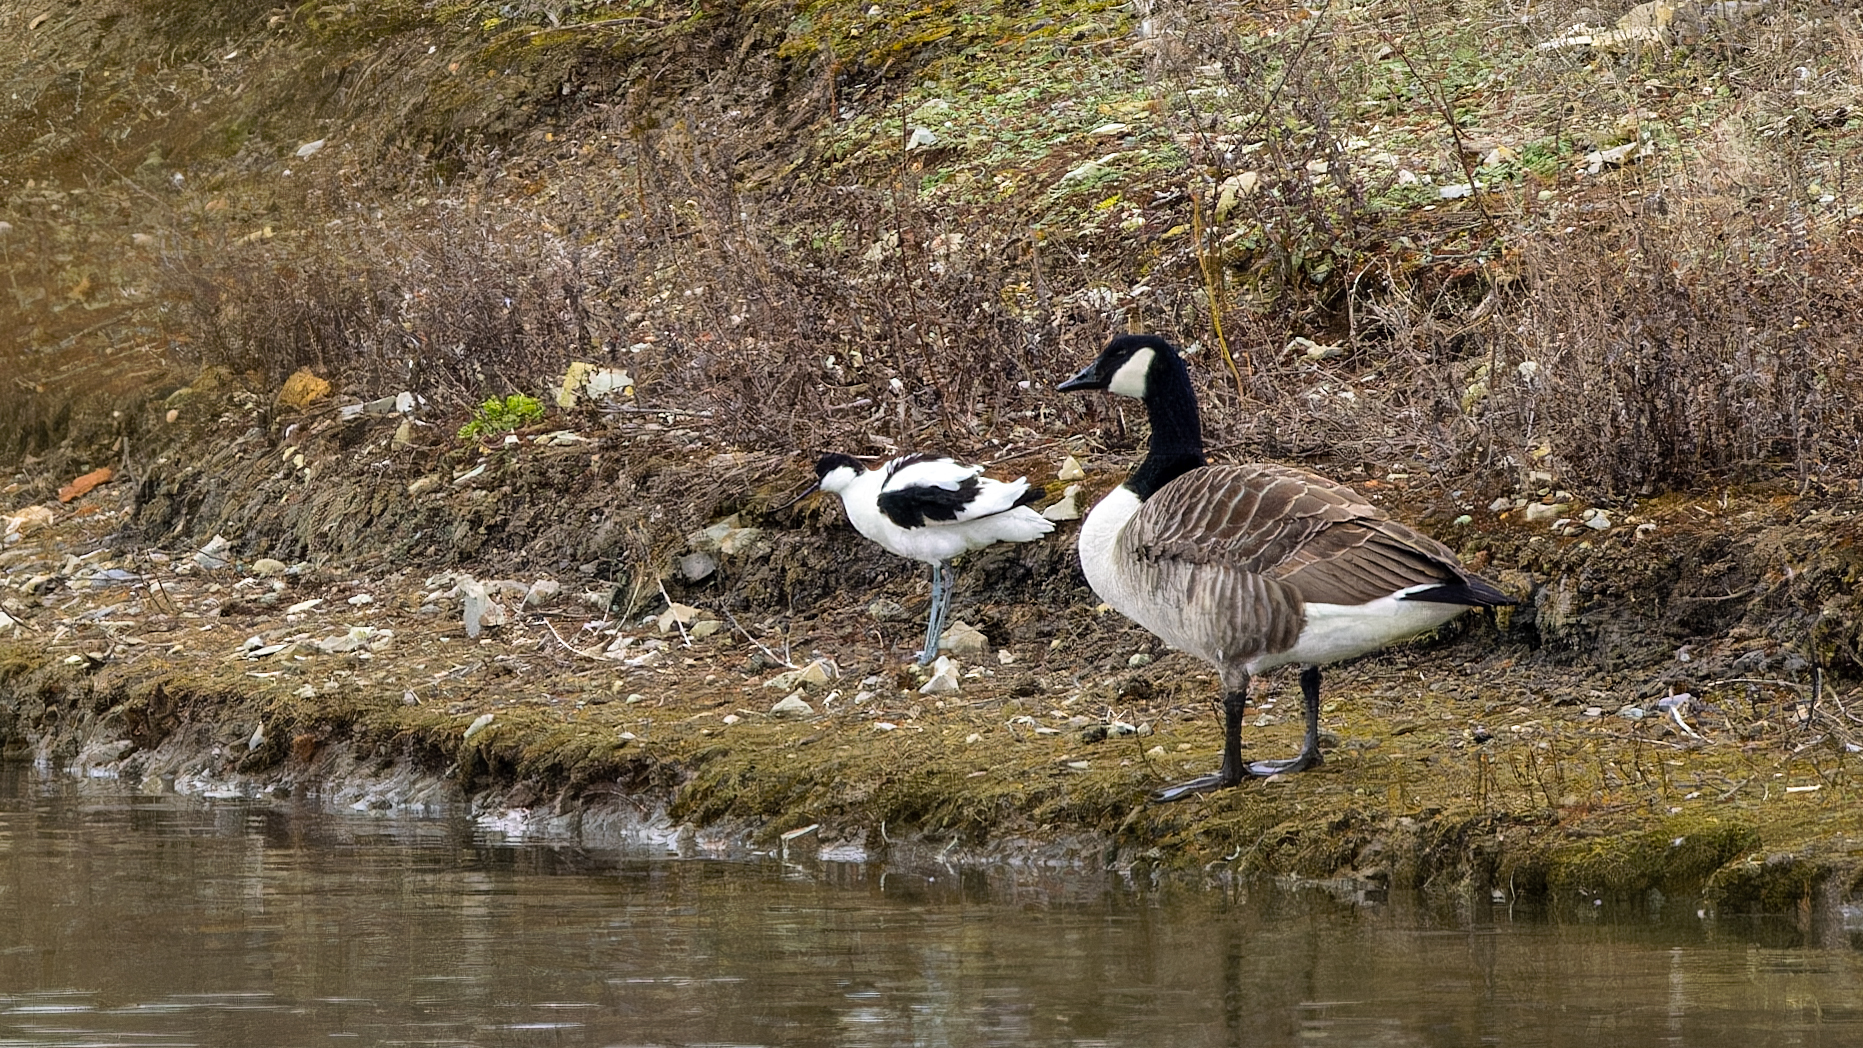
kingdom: Animalia
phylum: Chordata
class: Aves
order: Charadriiformes
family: Recurvirostridae
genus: Recurvirostra
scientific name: Recurvirostra avosetta
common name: Pied avocet
